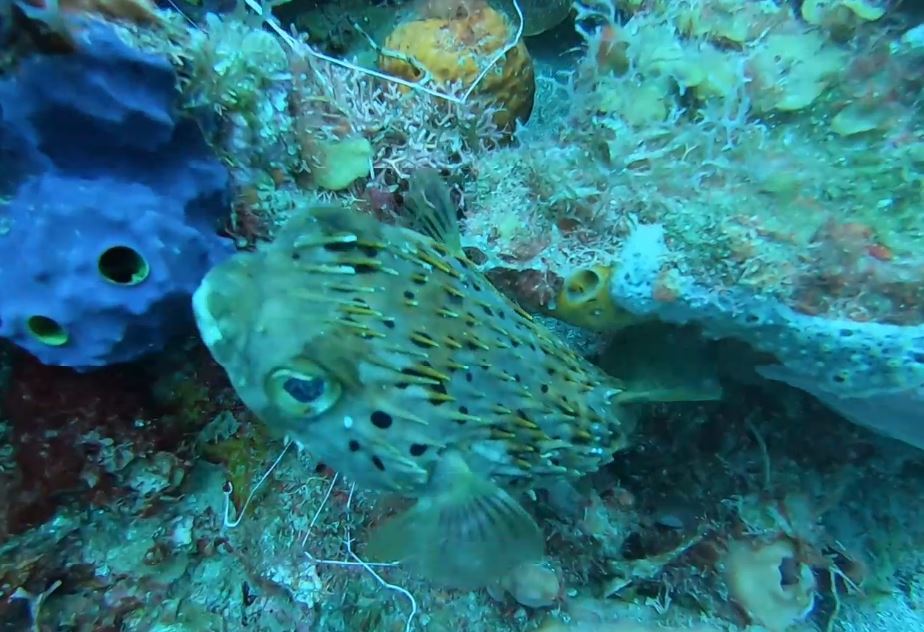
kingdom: Animalia
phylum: Chordata
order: Tetraodontiformes
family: Diodontidae
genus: Diodon
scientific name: Diodon holocanthus
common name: Balloonfish
